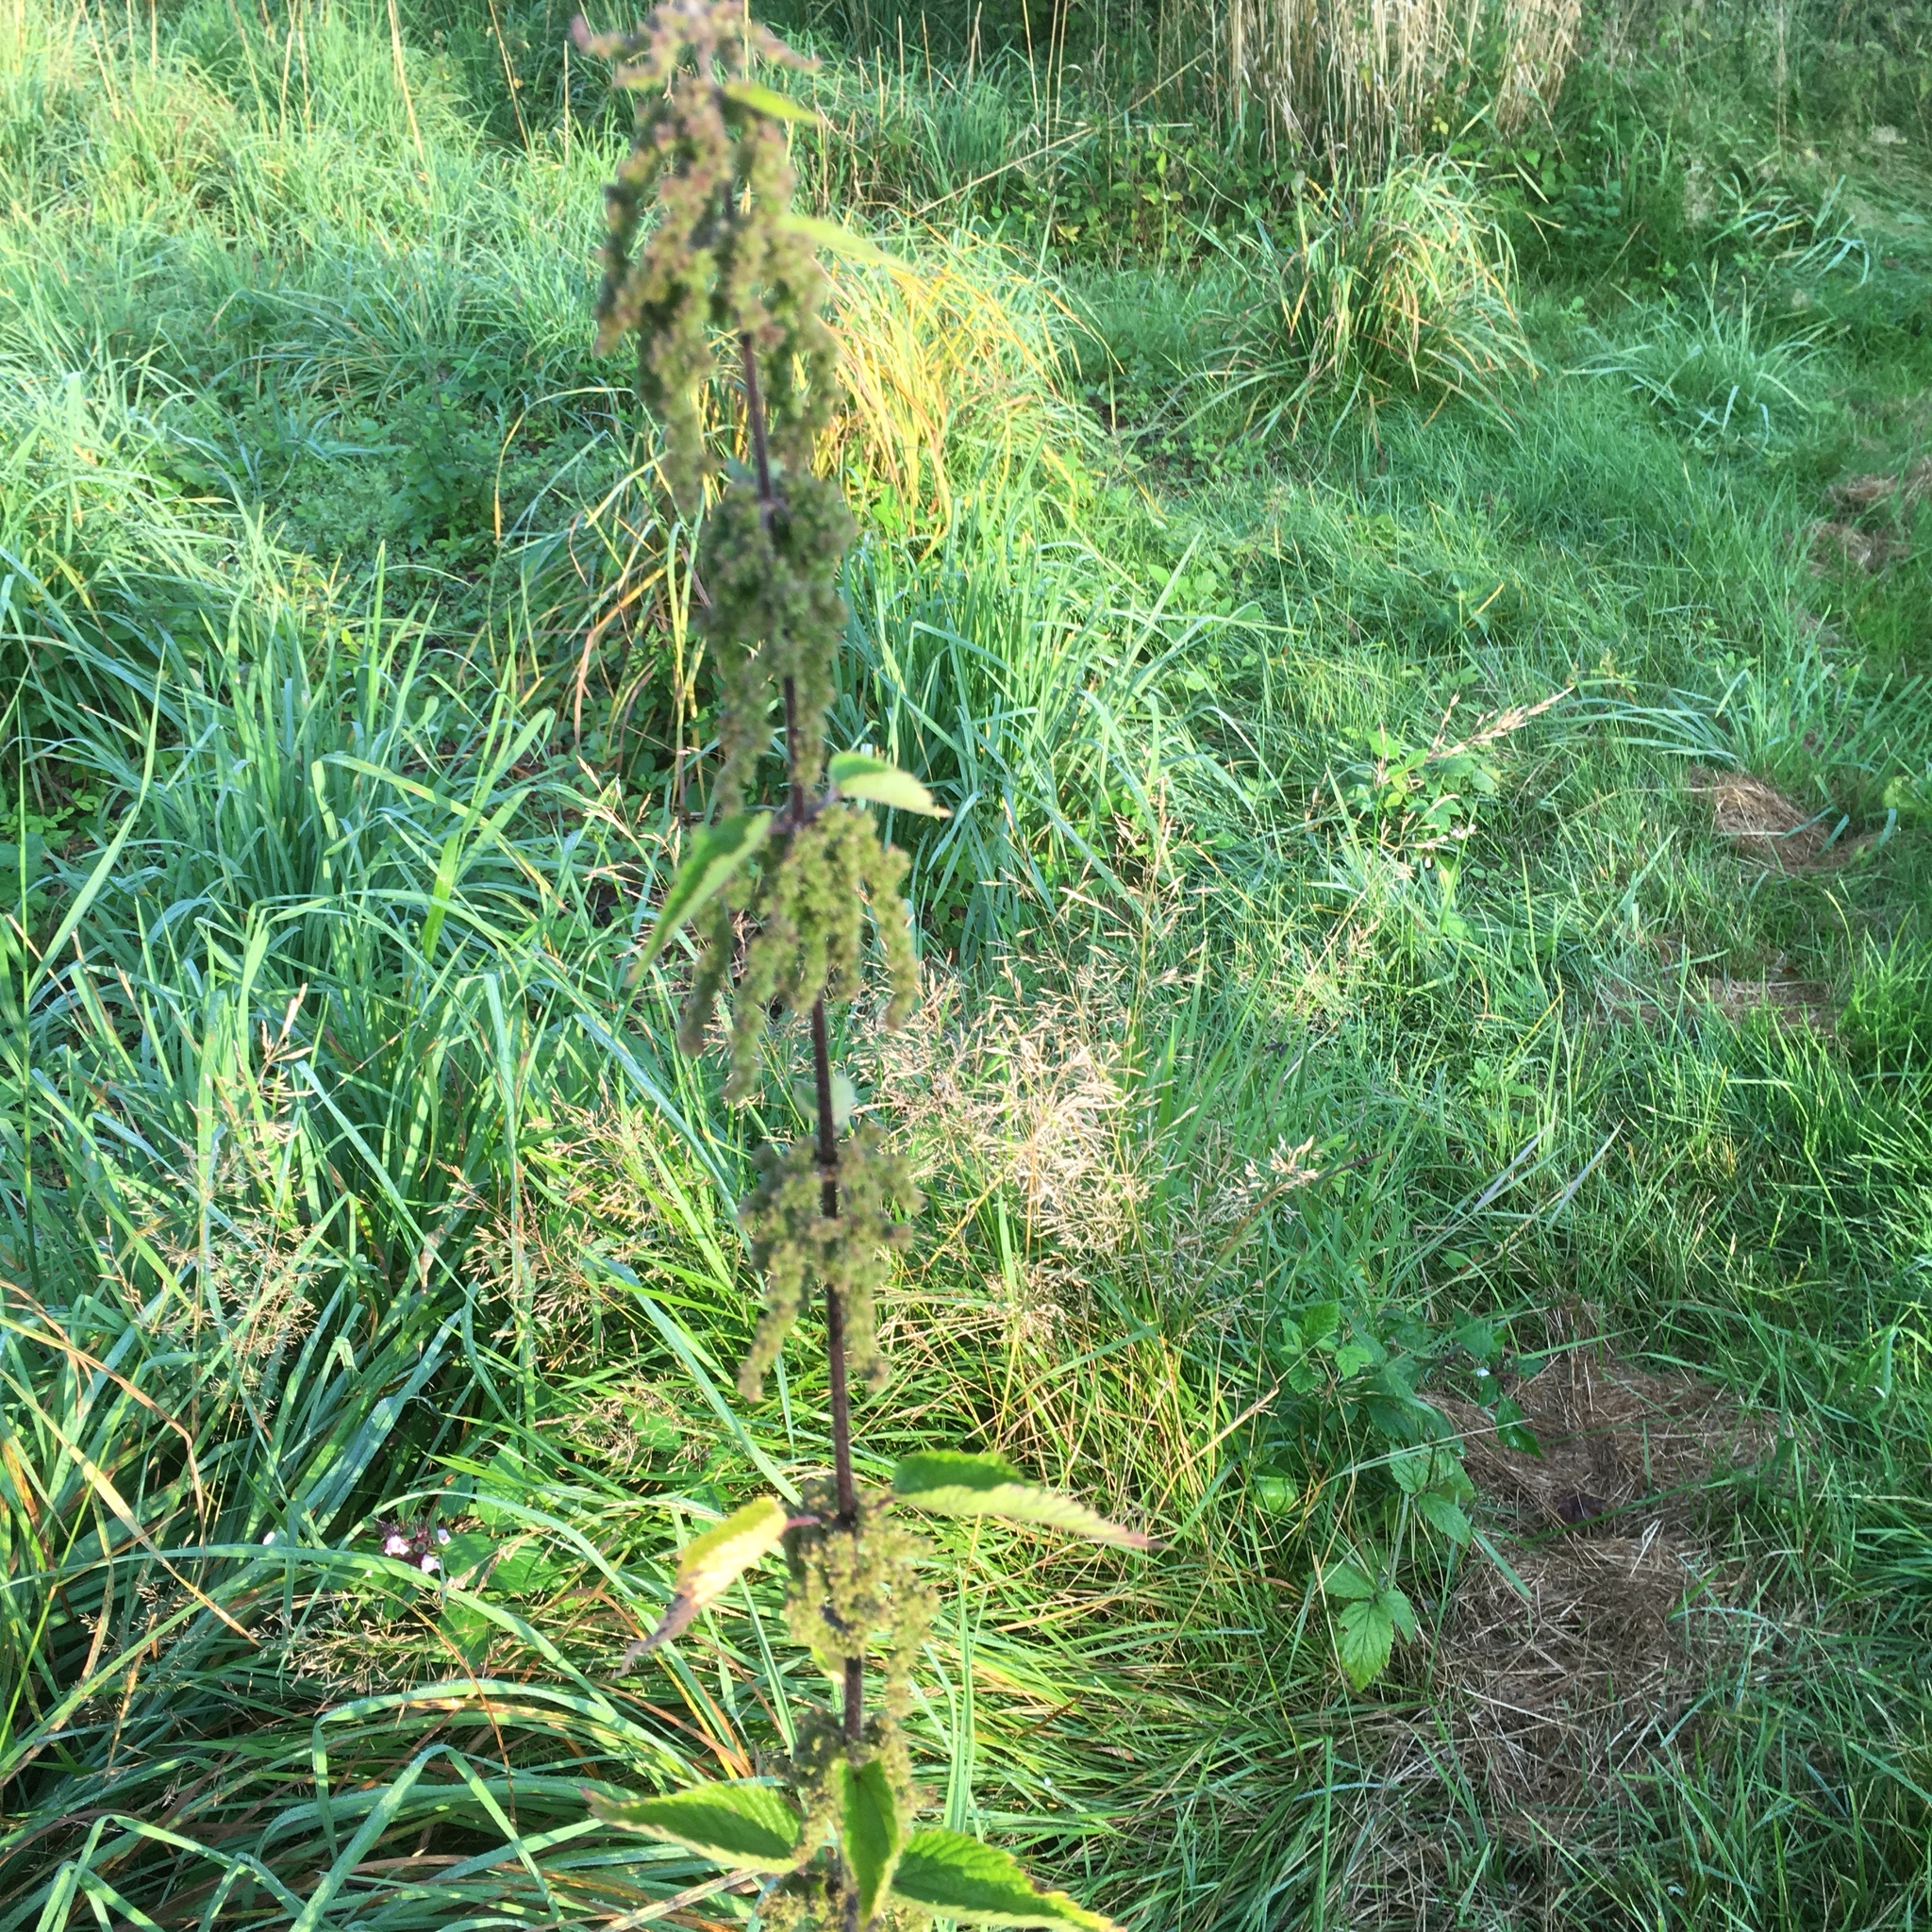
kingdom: Plantae
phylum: Tracheophyta
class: Magnoliopsida
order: Rosales
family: Urticaceae
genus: Urtica
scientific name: Urtica dioica
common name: Common nettle
